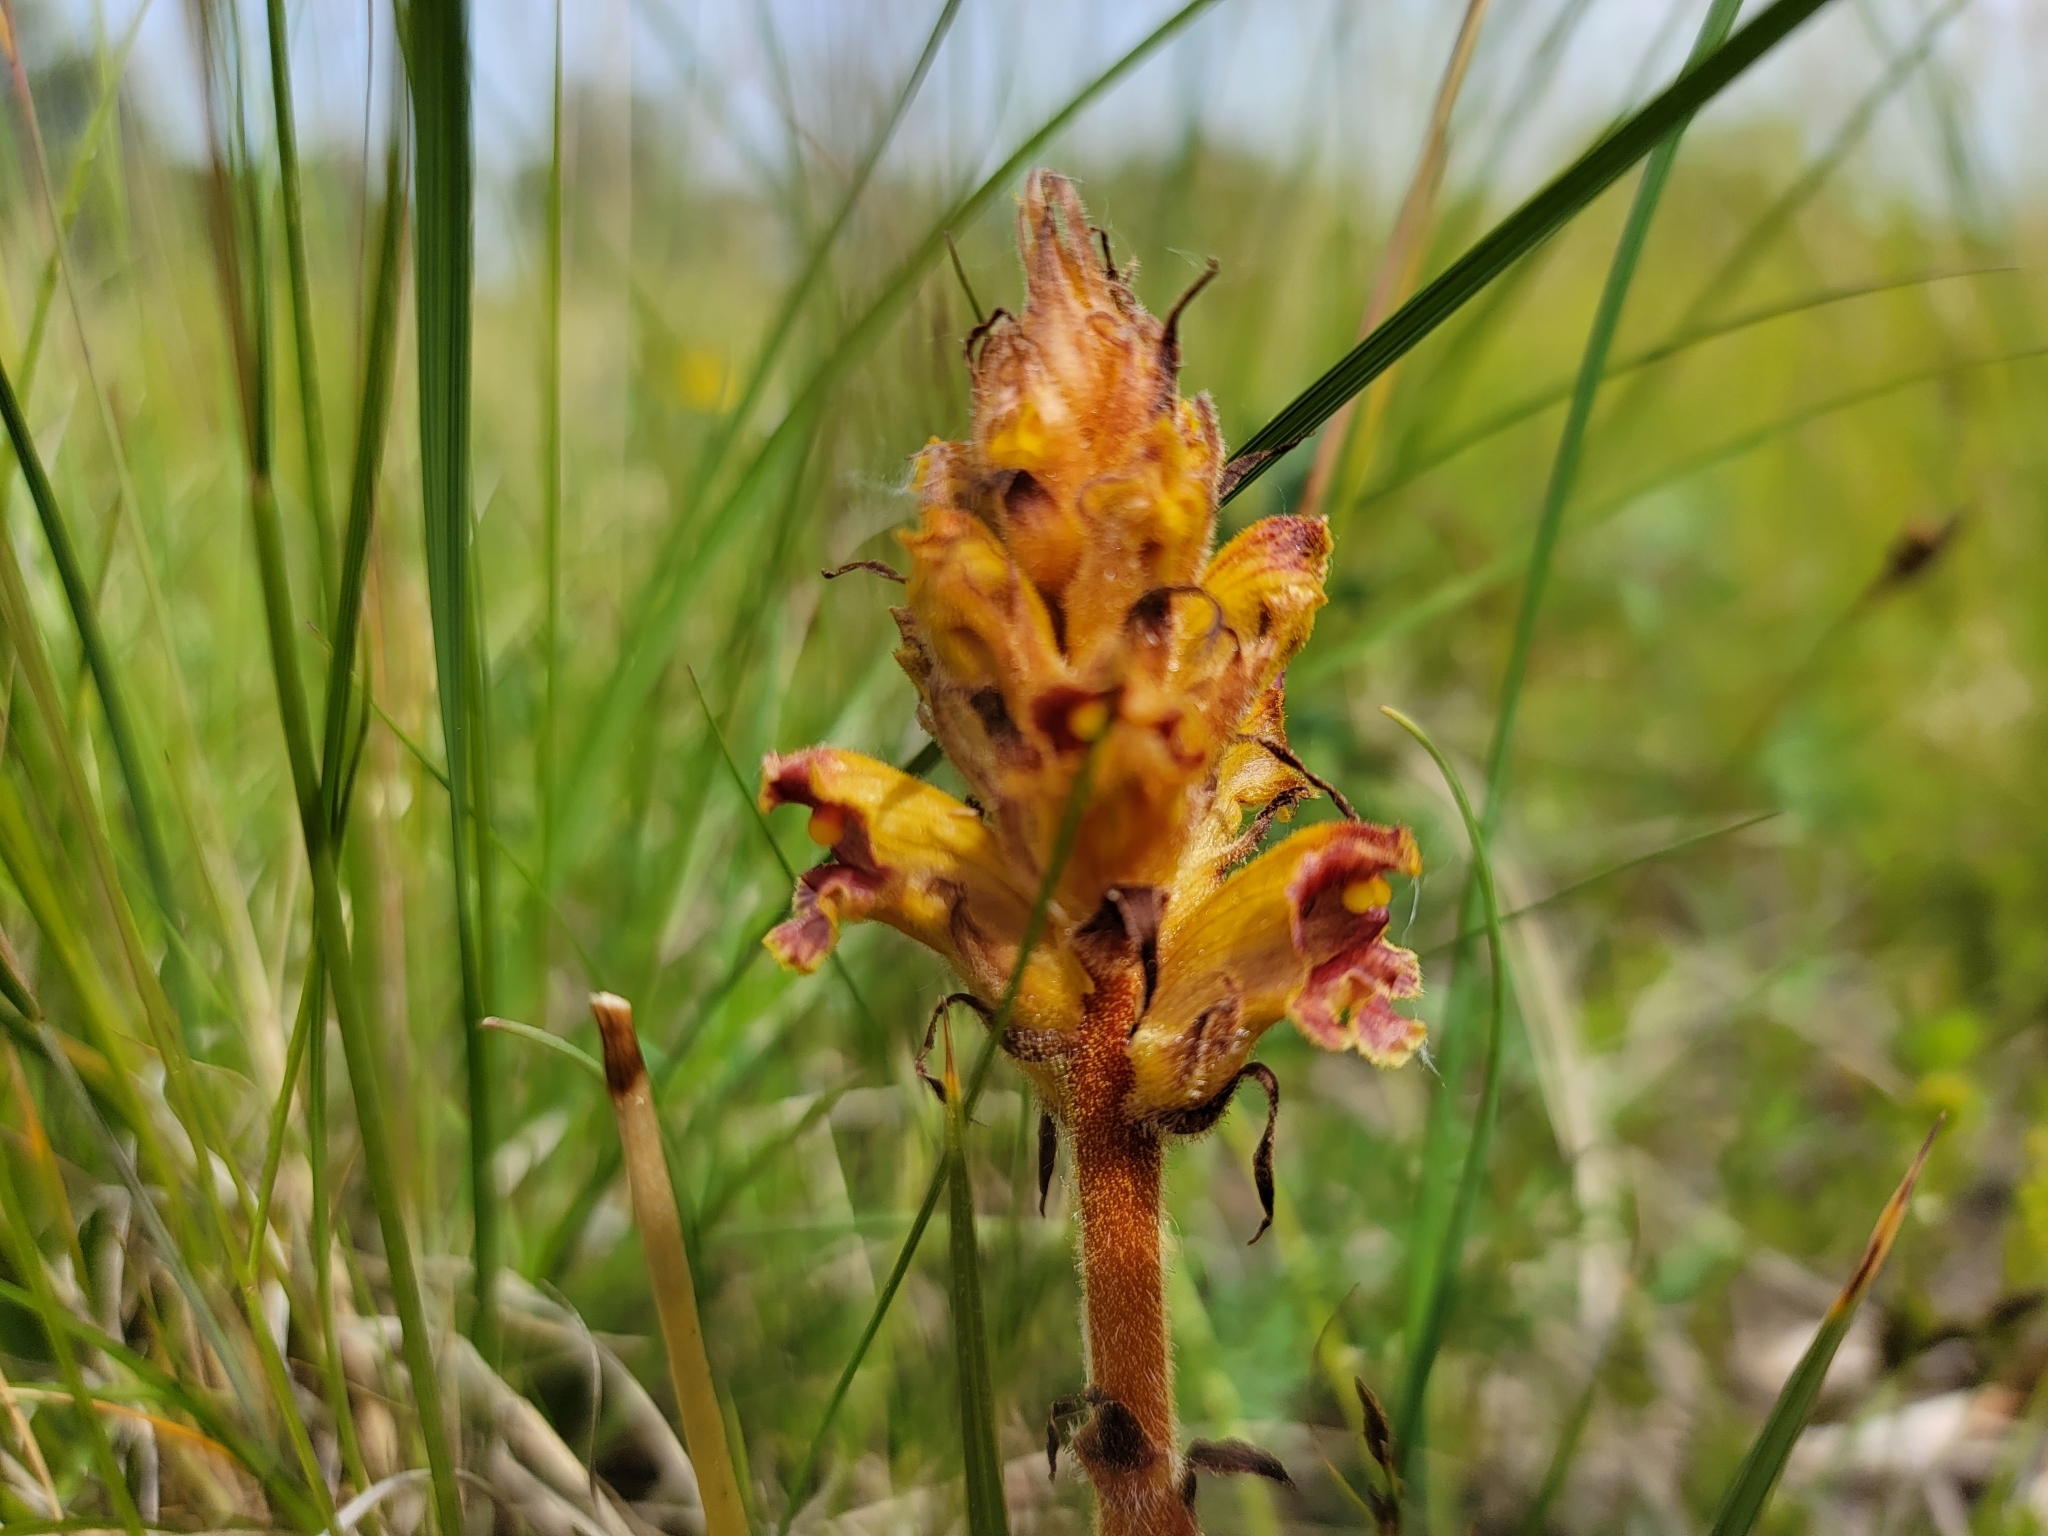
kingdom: Plantae
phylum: Tracheophyta
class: Magnoliopsida
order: Lamiales
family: Orobanchaceae
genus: Orobanche
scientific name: Orobanche gracilis
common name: Slender broomrape
